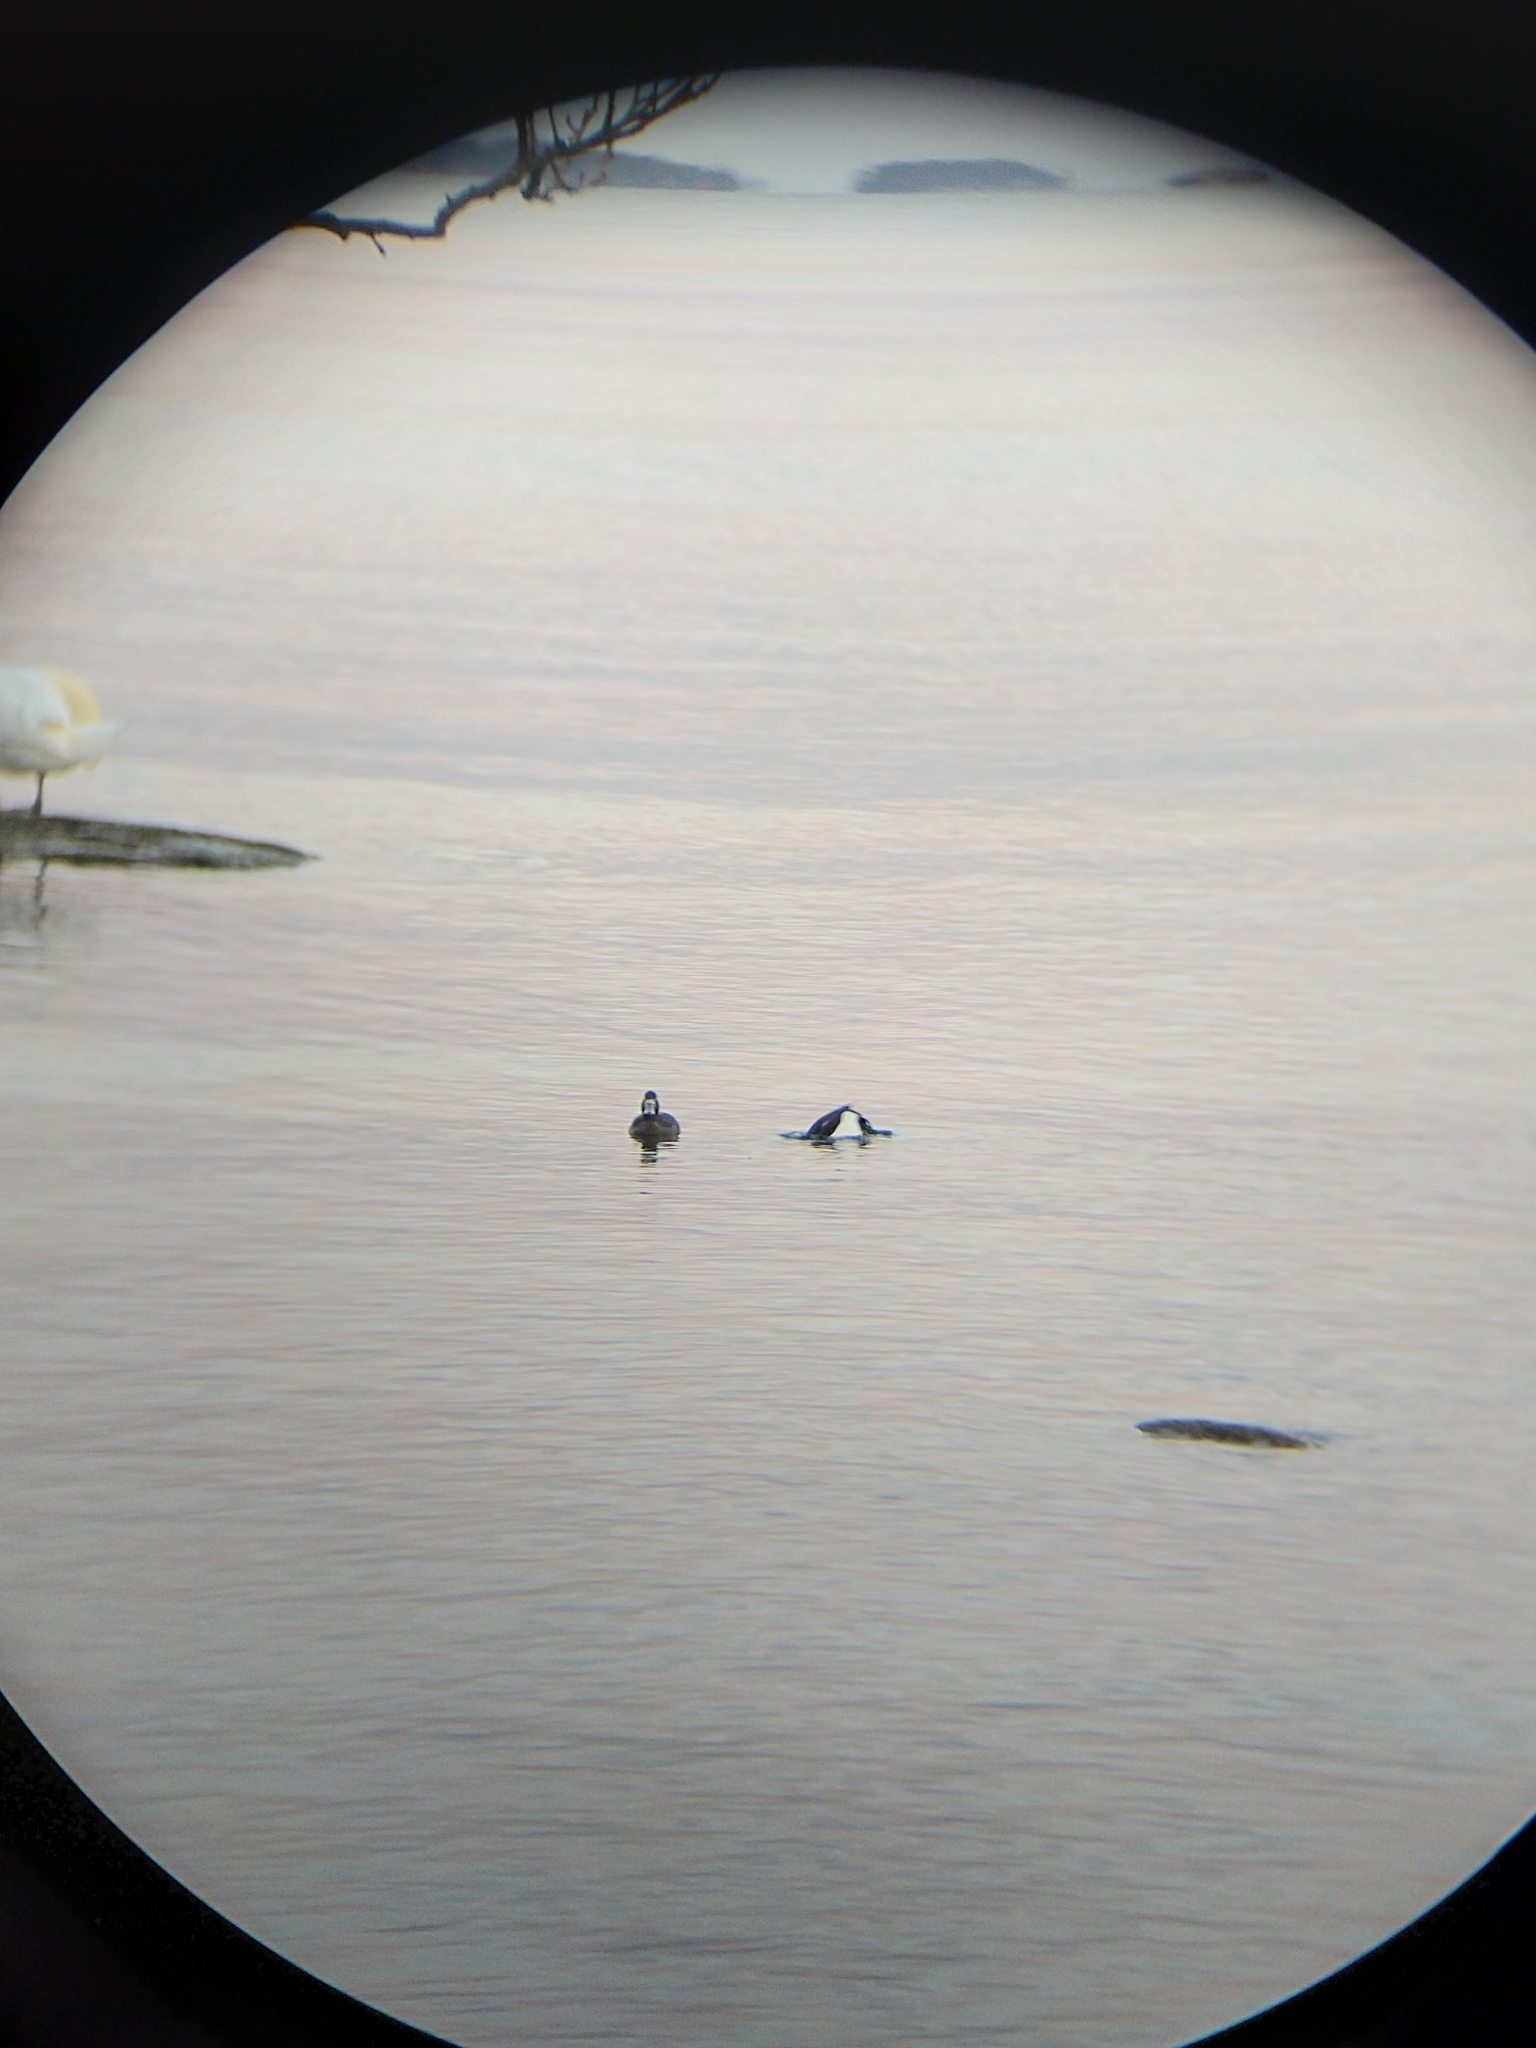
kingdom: Animalia
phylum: Chordata
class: Aves
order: Anseriformes
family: Anatidae
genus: Aythya
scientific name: Aythya fuligula
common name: Tufted duck
